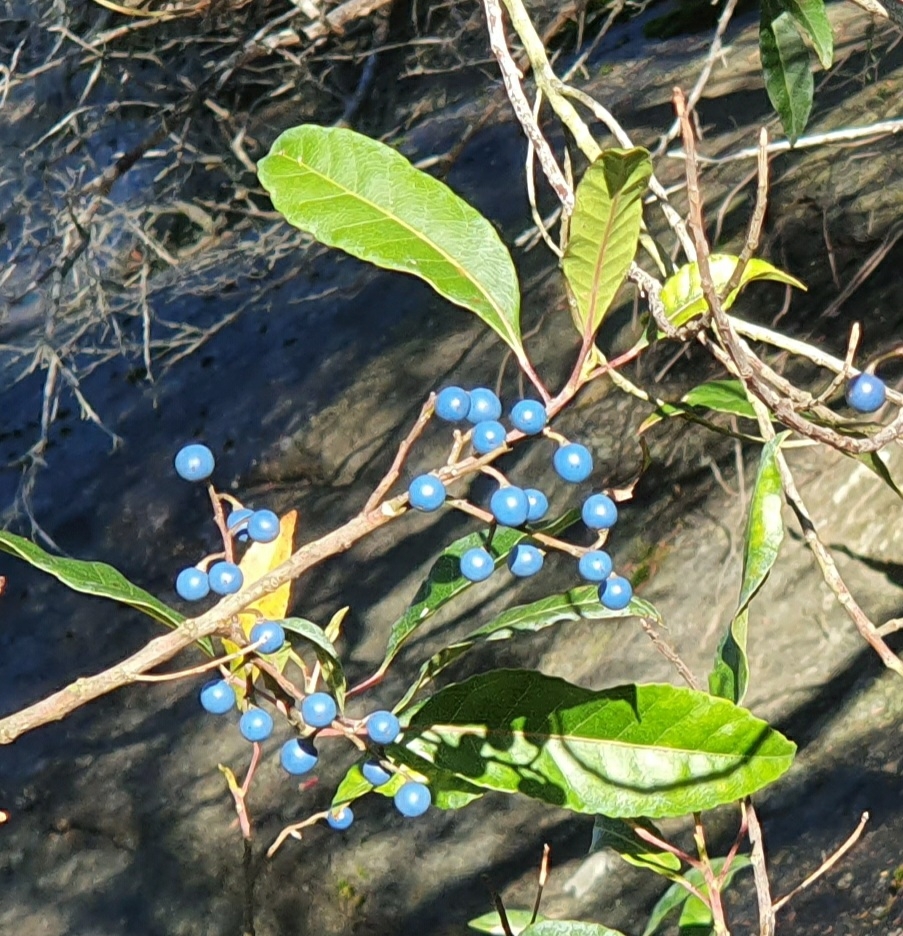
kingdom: Plantae
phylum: Tracheophyta
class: Magnoliopsida
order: Oxalidales
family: Elaeocarpaceae
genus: Elaeocarpus
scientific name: Elaeocarpus reticulatus
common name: Ash quandong
